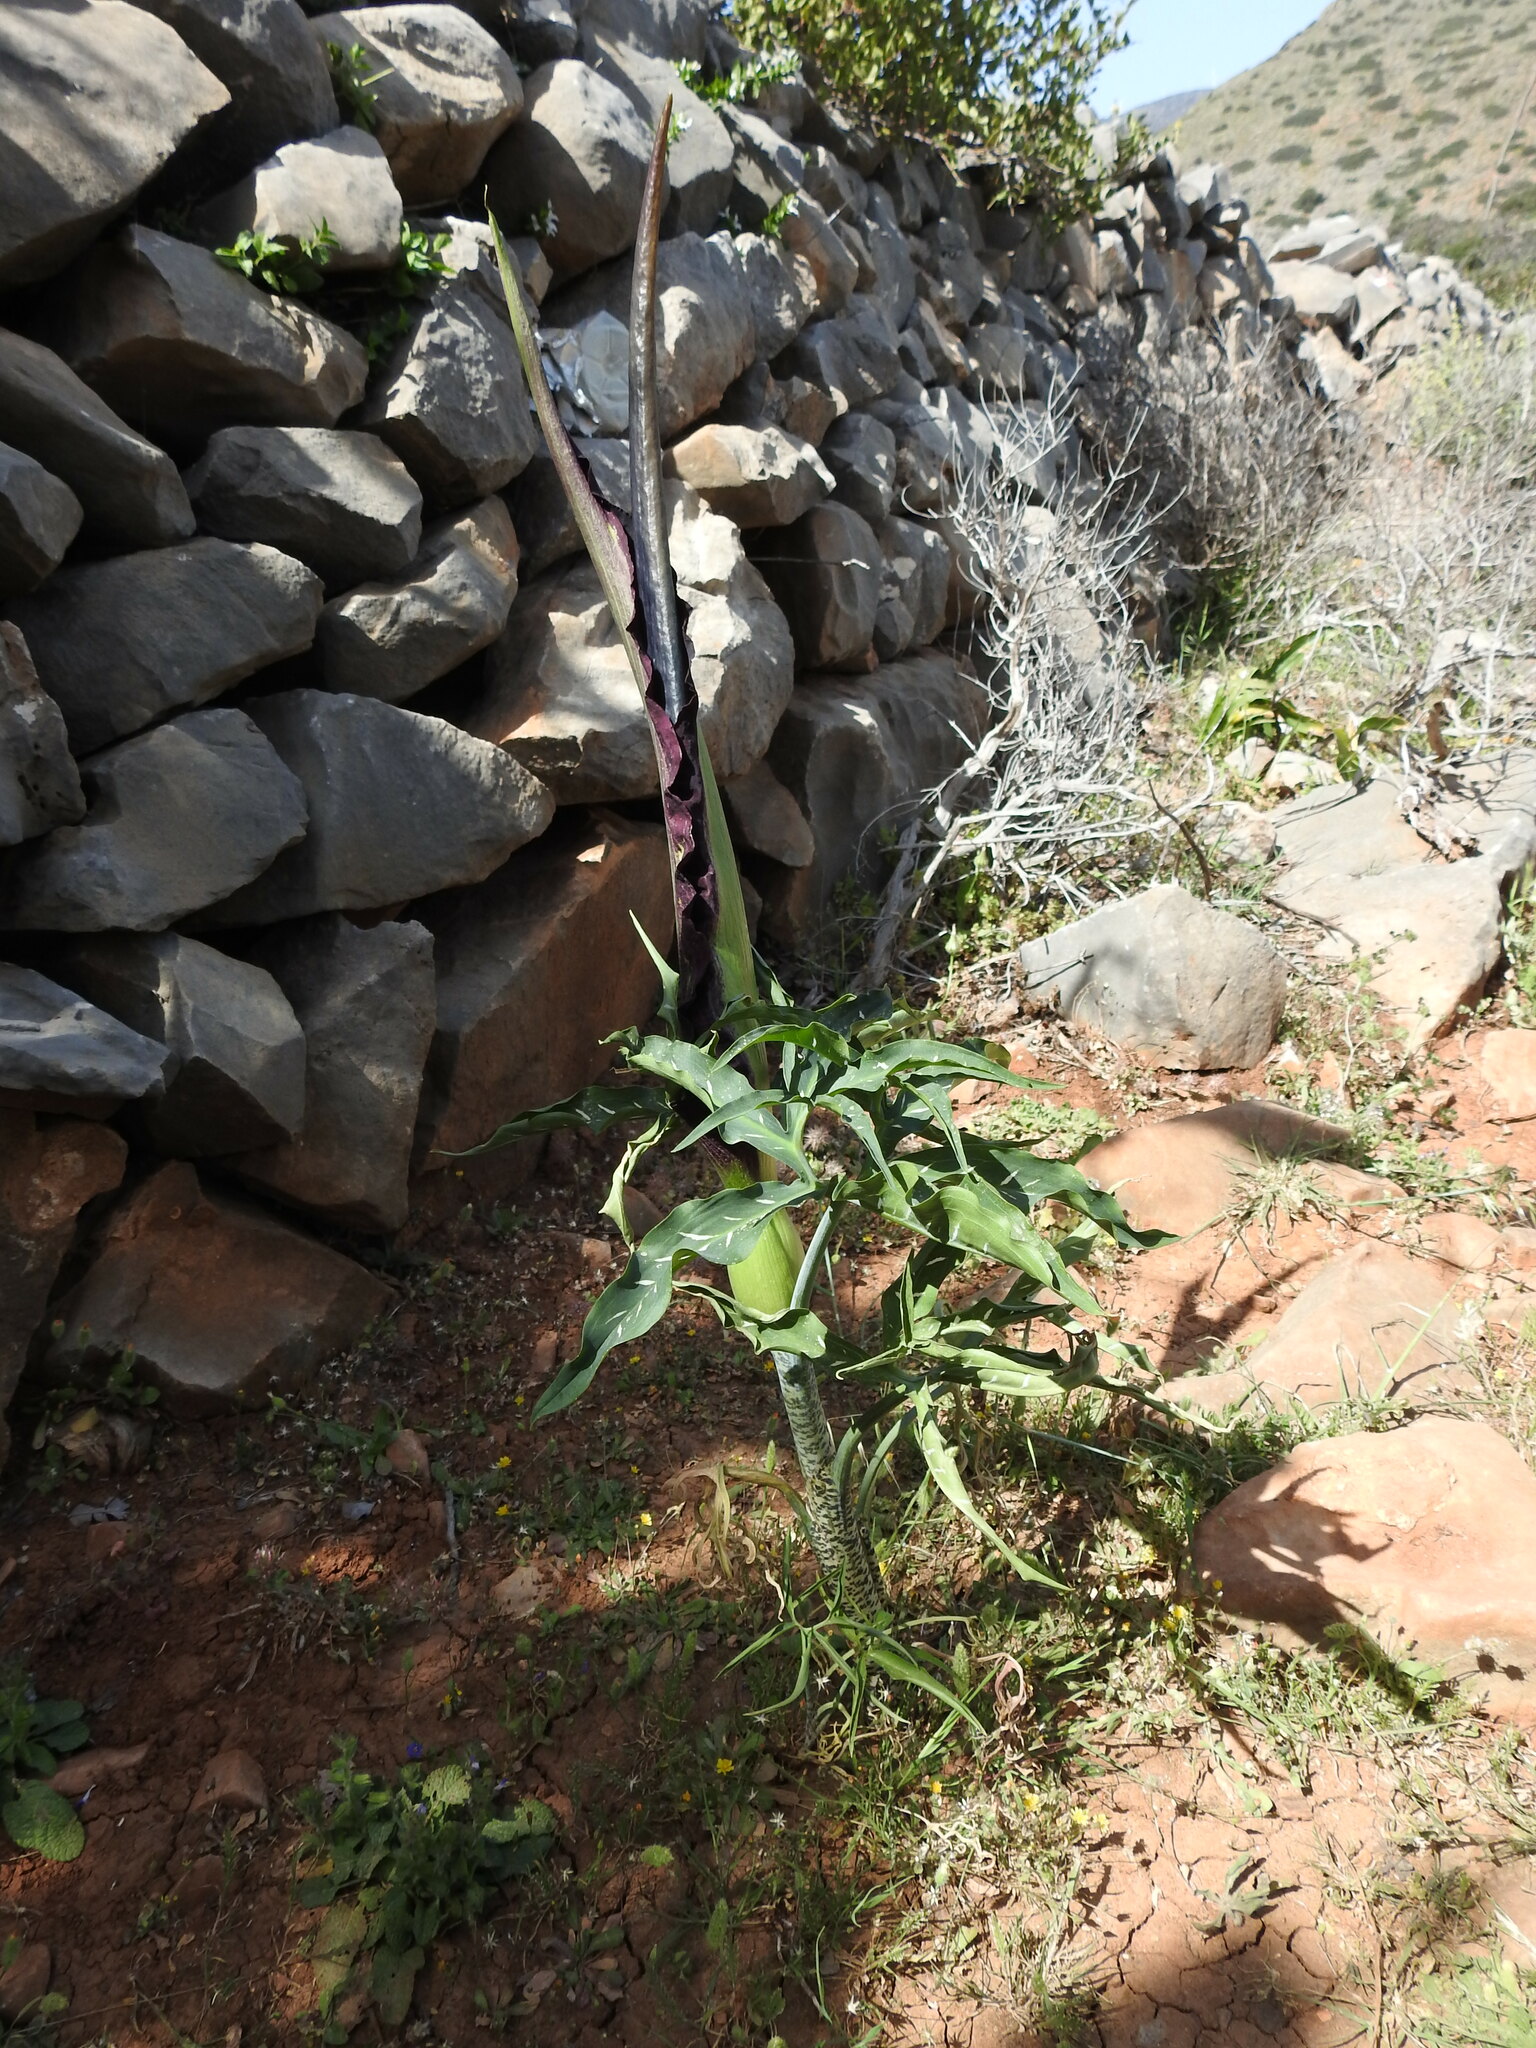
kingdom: Plantae
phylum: Tracheophyta
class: Liliopsida
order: Alismatales
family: Araceae
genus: Dracunculus
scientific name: Dracunculus vulgaris
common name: Dragon arum
